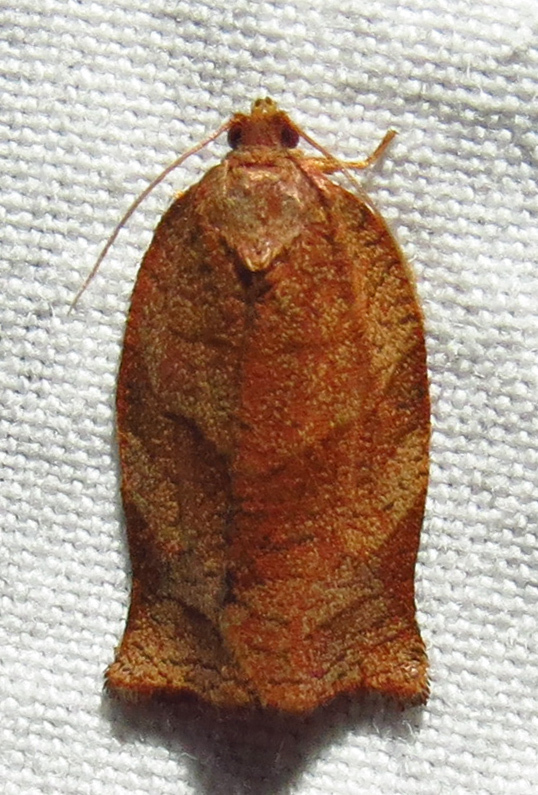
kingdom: Animalia
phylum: Arthropoda
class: Insecta
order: Lepidoptera
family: Tortricidae
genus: Choristoneura
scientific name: Choristoneura parallela
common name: Parallel-banded leafroller moth
